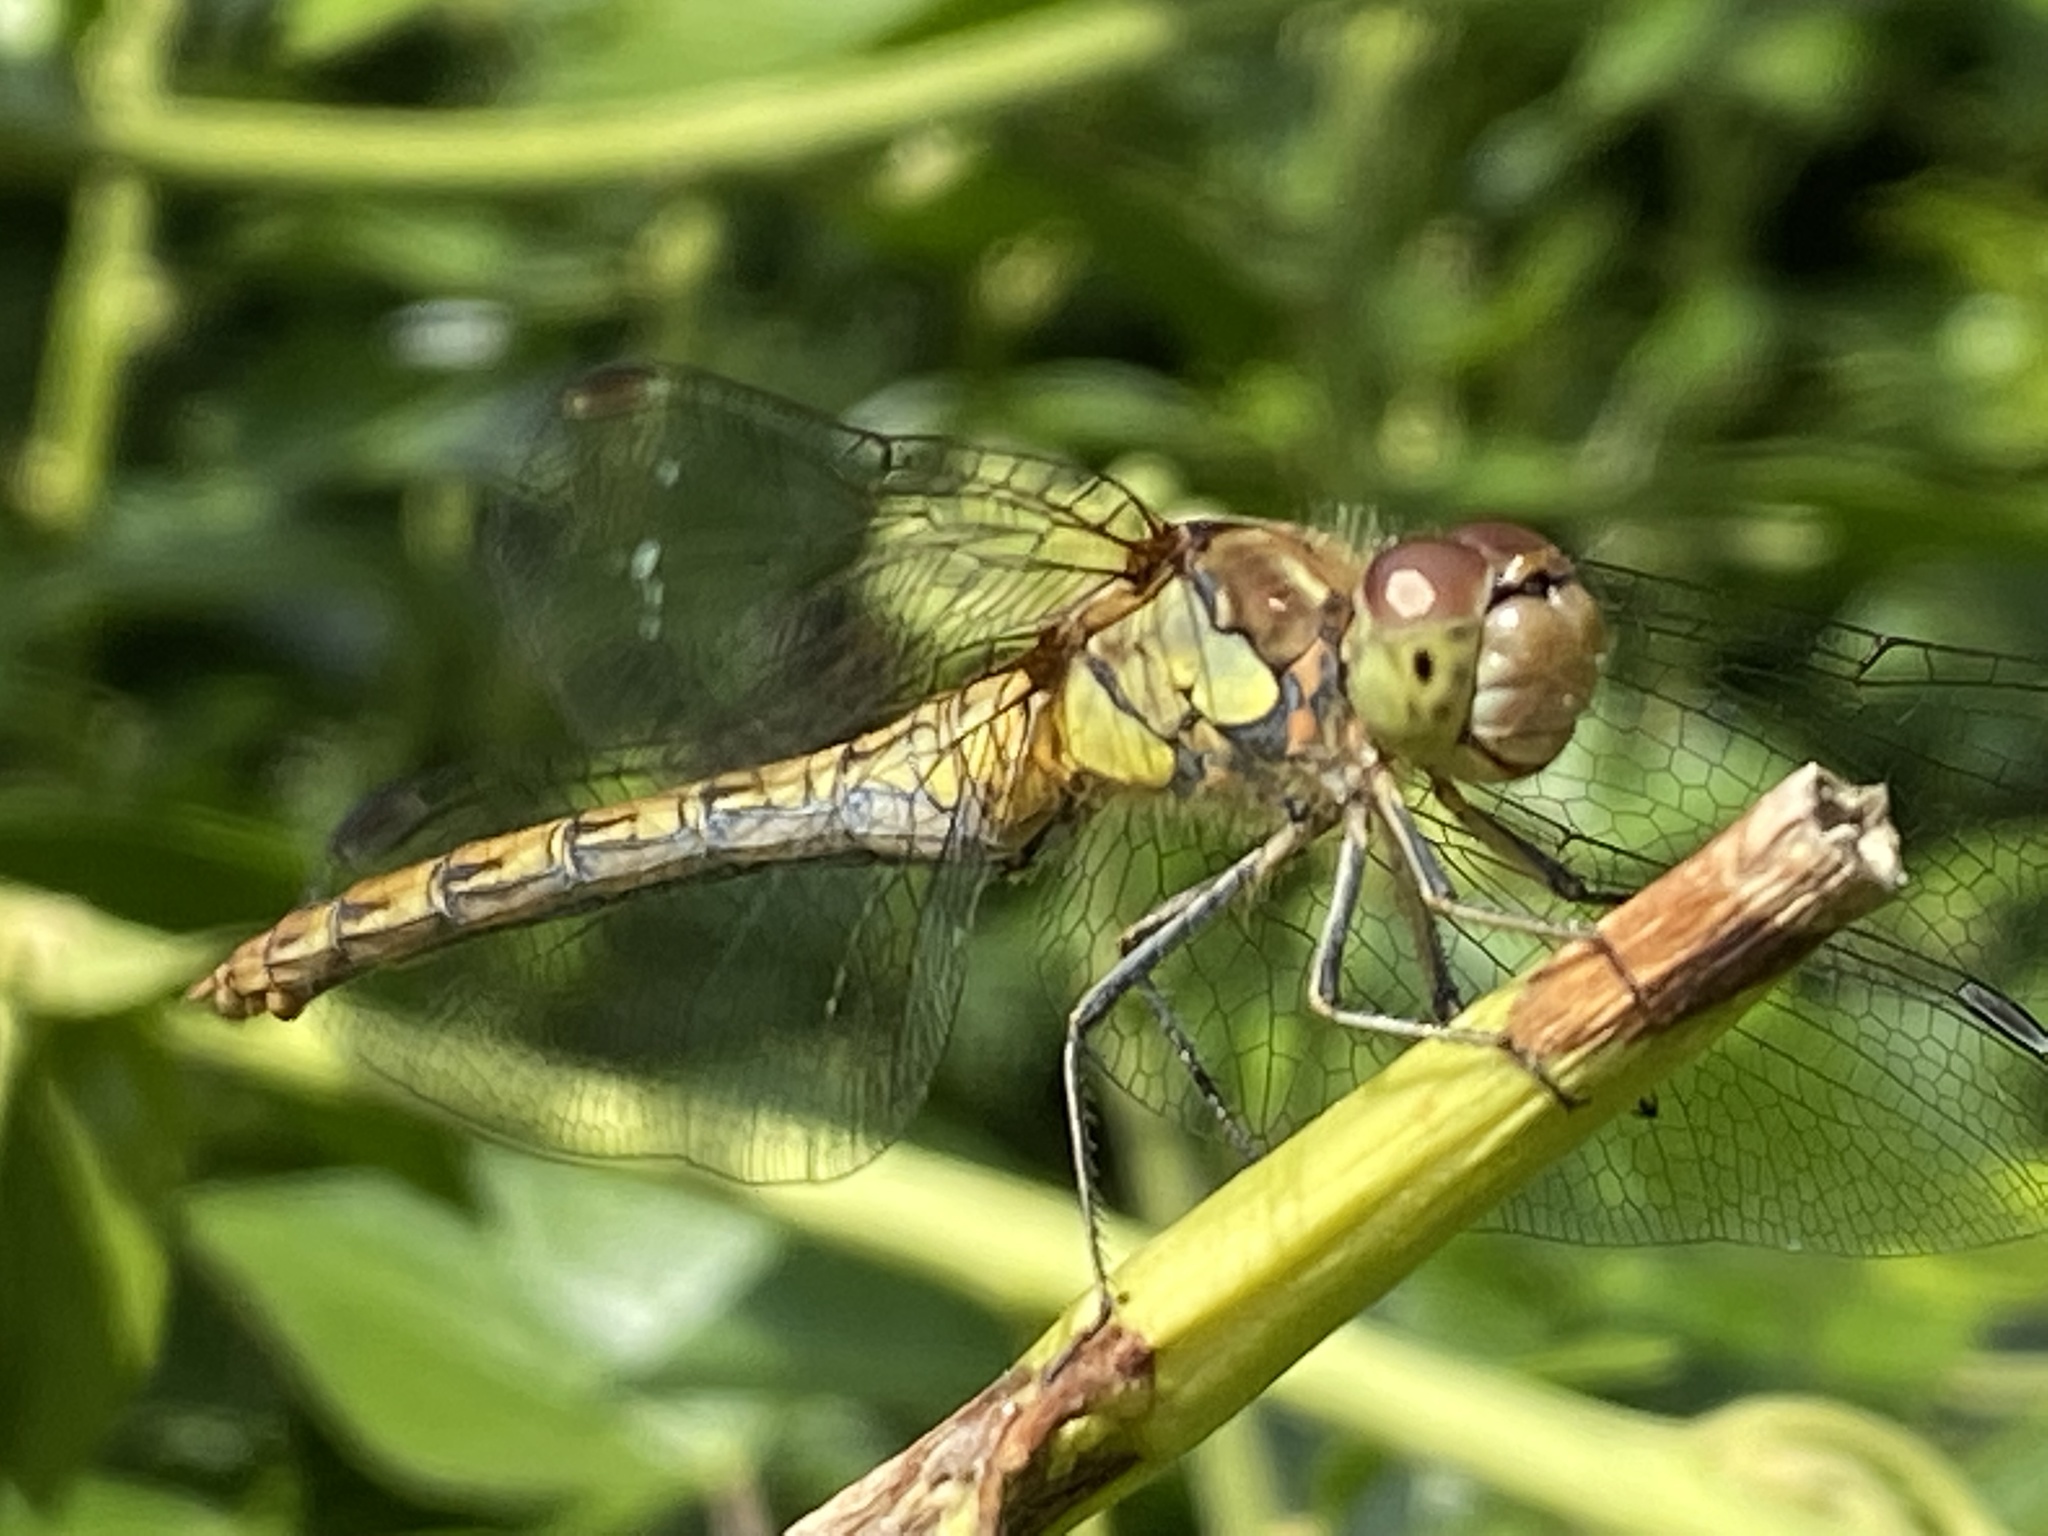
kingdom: Animalia
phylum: Arthropoda
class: Insecta
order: Odonata
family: Libellulidae
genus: Sympetrum
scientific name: Sympetrum striolatum
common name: Common darter
